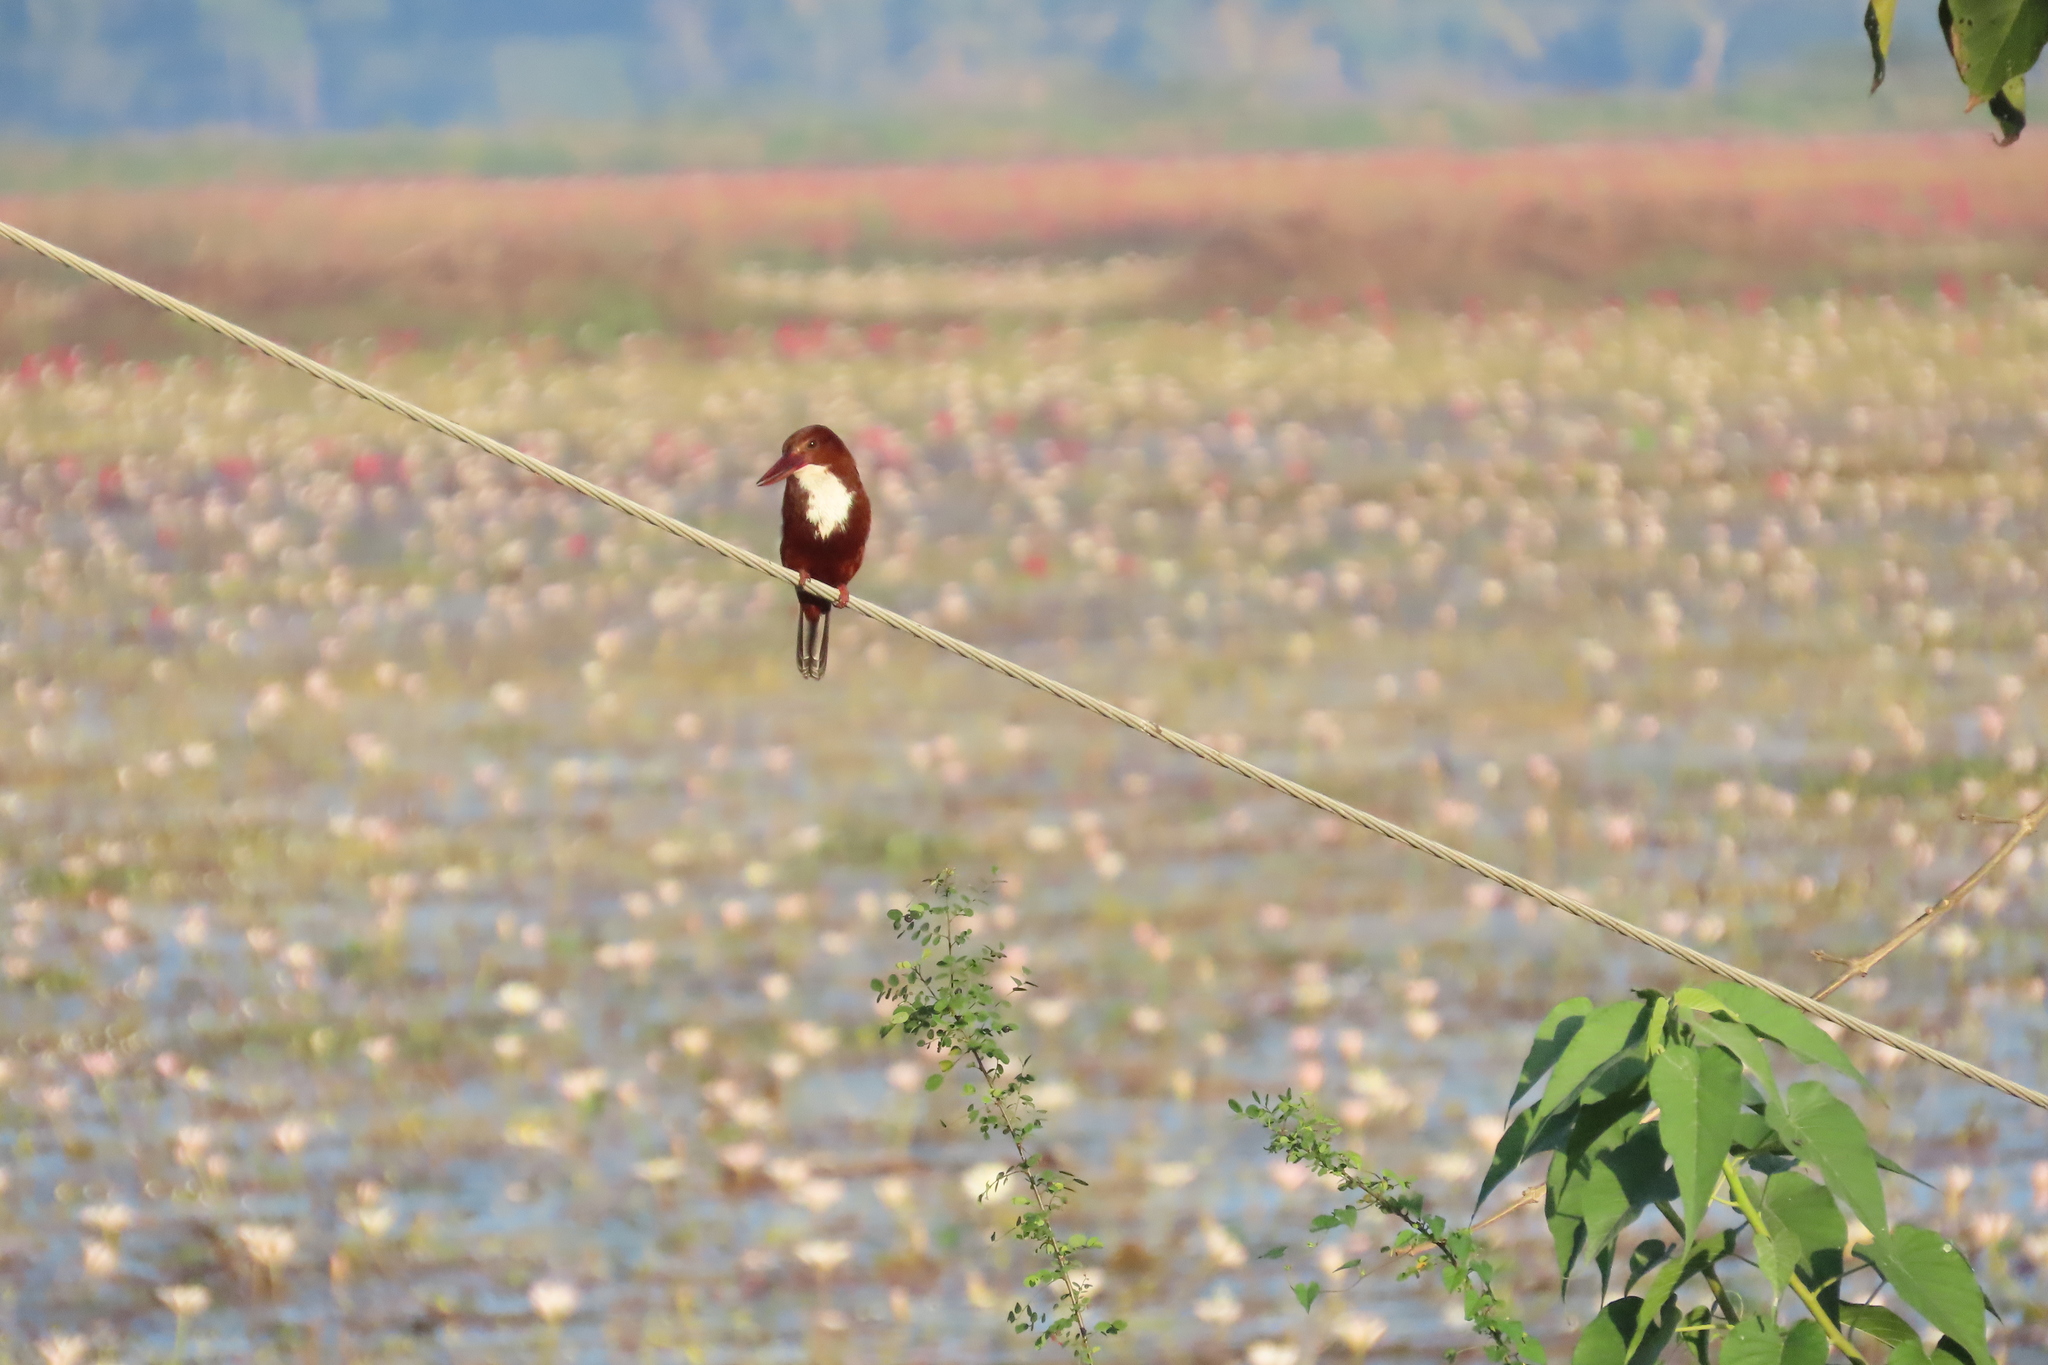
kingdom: Animalia
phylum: Chordata
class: Aves
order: Coraciiformes
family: Alcedinidae
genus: Halcyon
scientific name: Halcyon smyrnensis
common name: White-throated kingfisher
